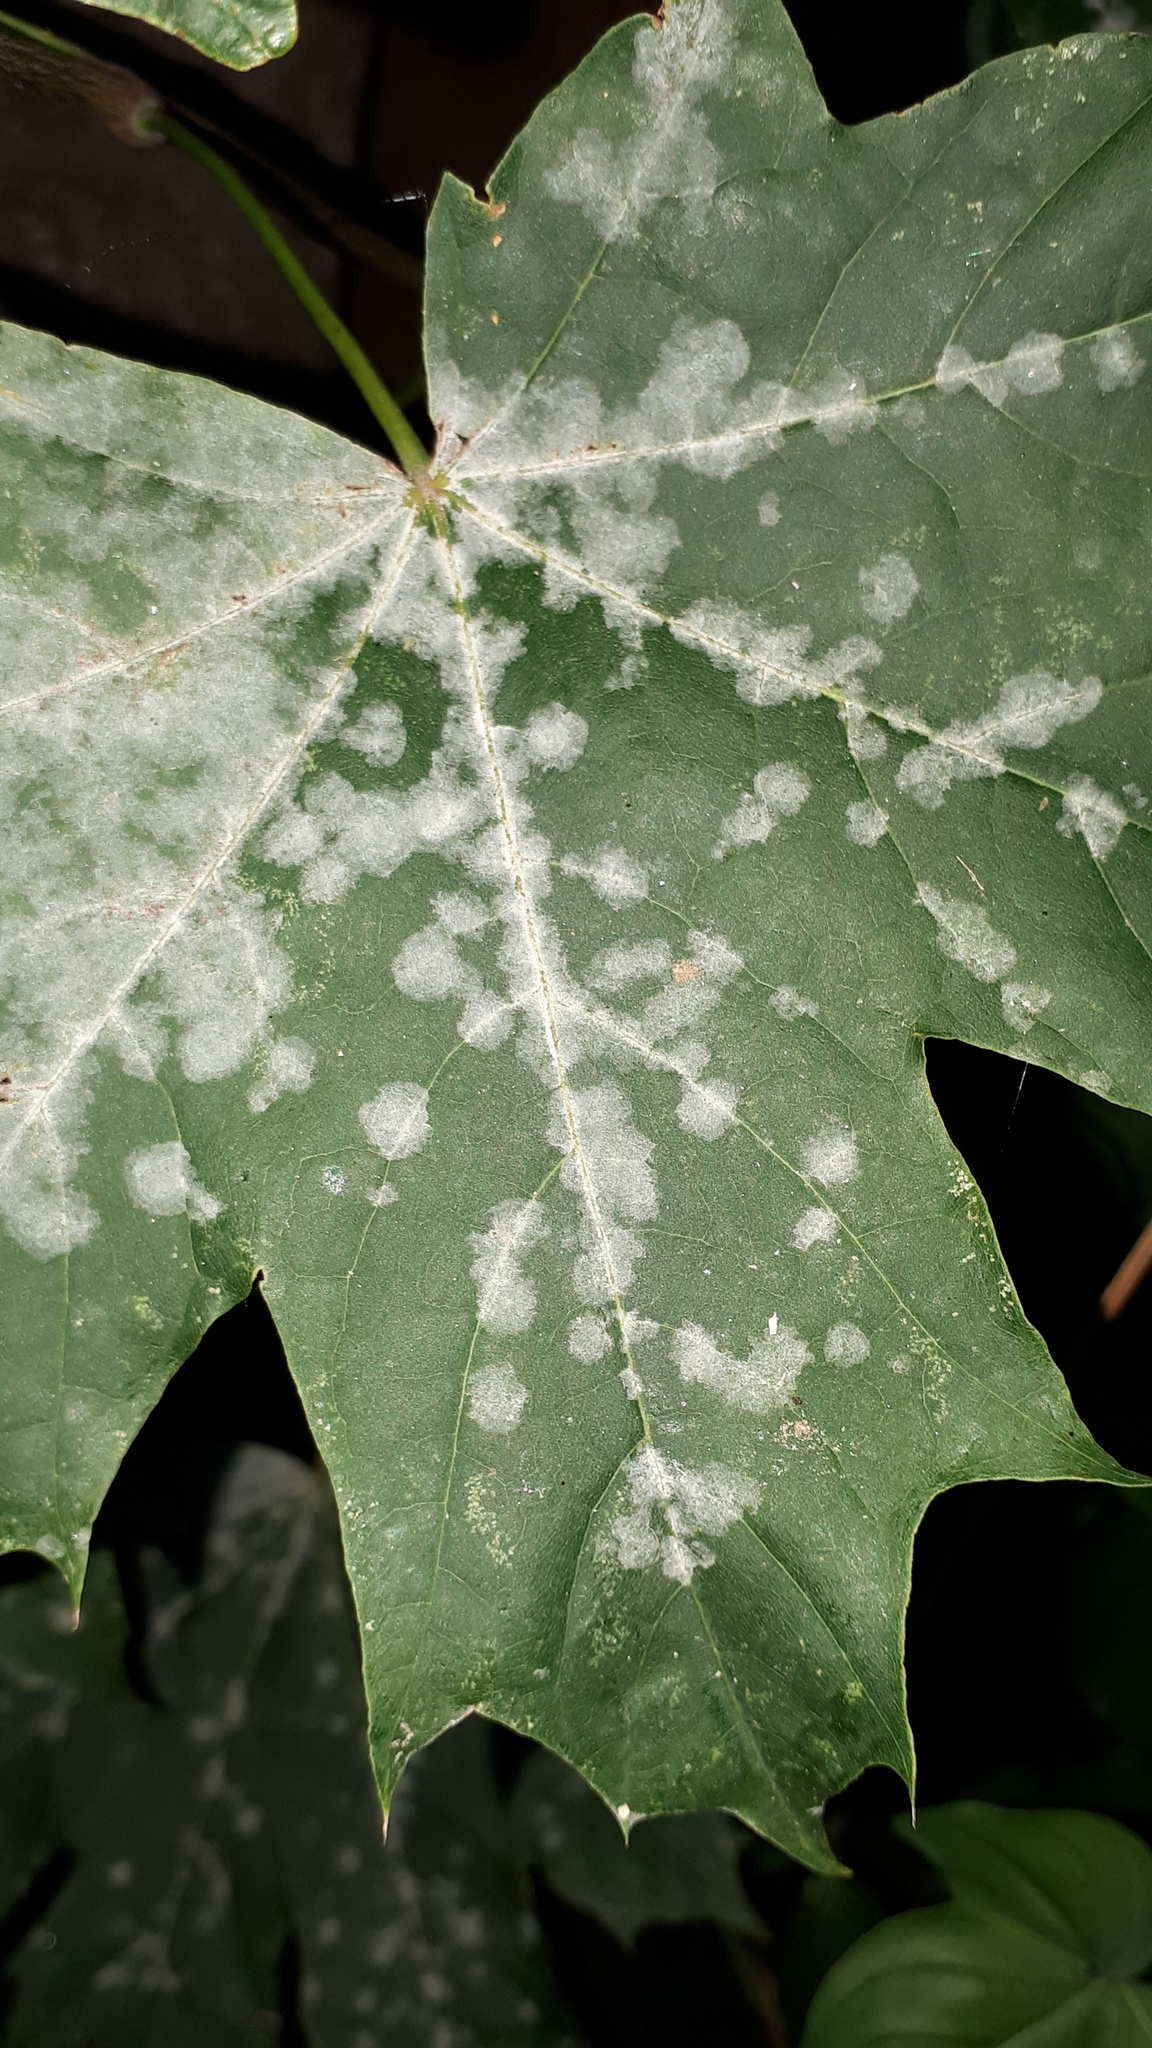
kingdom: Fungi
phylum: Ascomycota
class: Leotiomycetes
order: Helotiales
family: Erysiphaceae
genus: Sawadaea
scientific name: Sawadaea tulasnei
